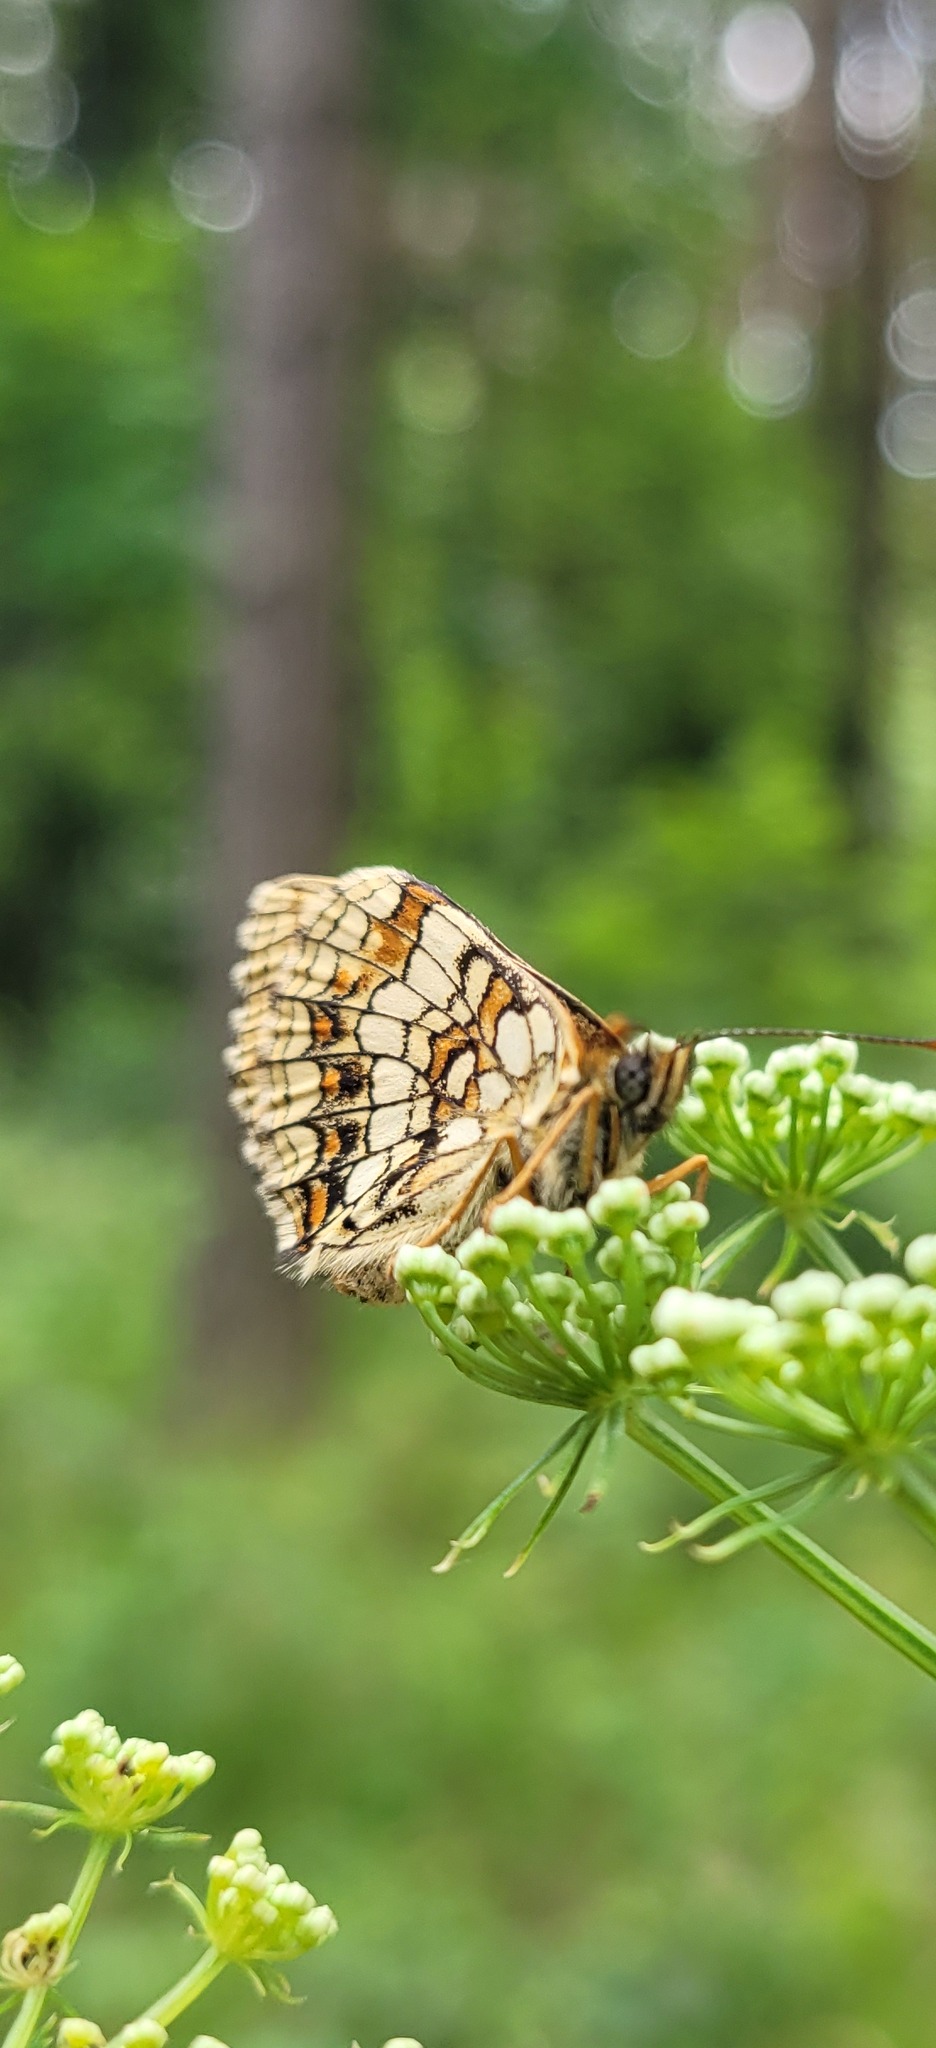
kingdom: Animalia
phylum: Arthropoda
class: Insecta
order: Lepidoptera
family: Nymphalidae
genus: Melitaea
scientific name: Melitaea athalia
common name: Heath fritillary
